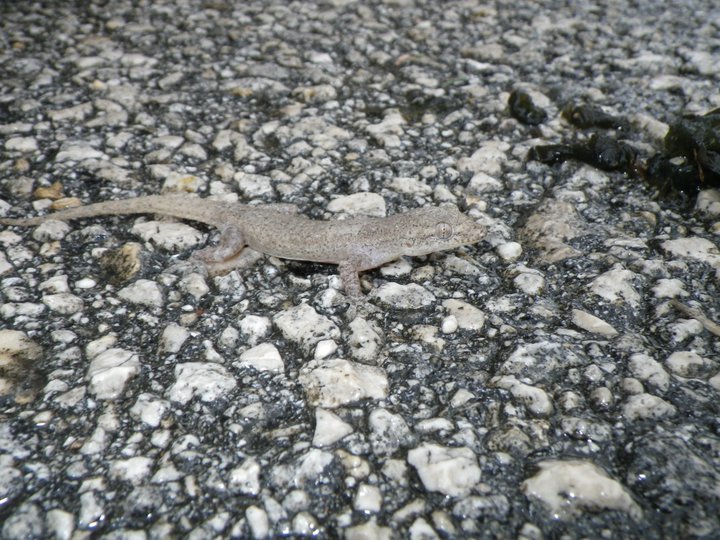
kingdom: Animalia
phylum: Chordata
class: Squamata
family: Gekkonidae
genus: Hemidactylus
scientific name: Hemidactylus frenatus
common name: Common house gecko
